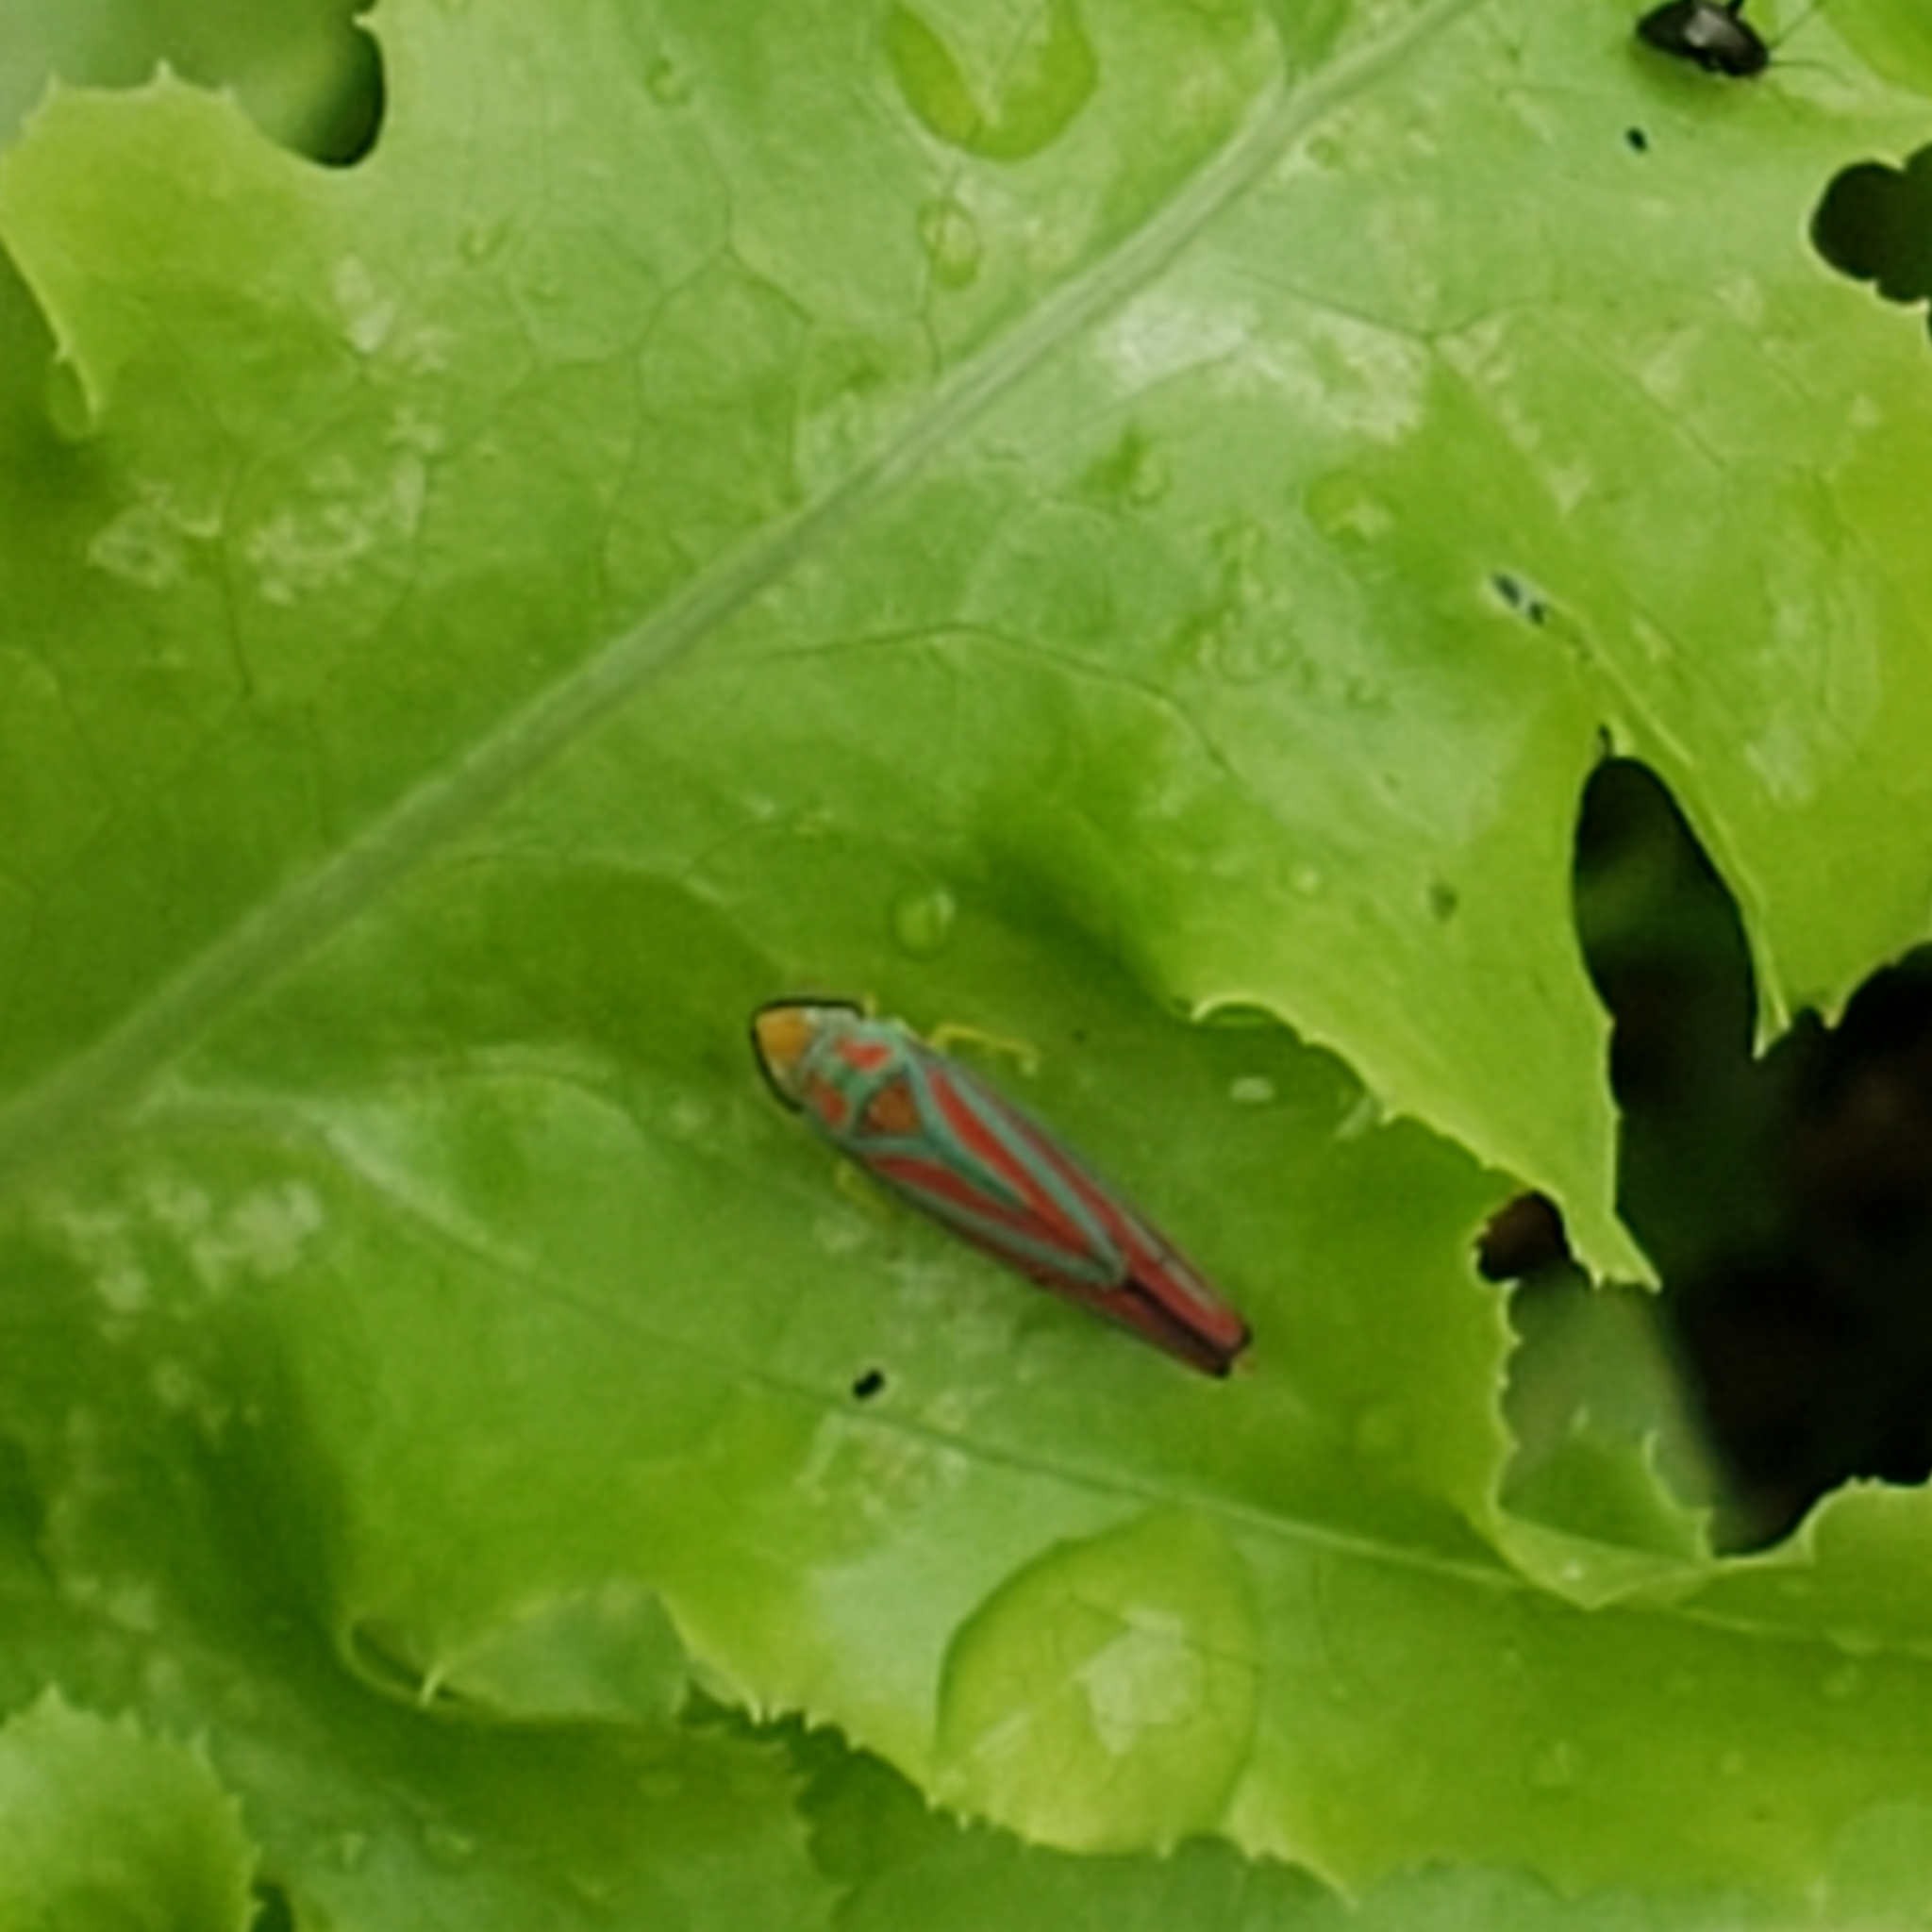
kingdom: Animalia
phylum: Arthropoda
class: Insecta
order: Hemiptera
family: Cicadellidae
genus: Graphocephala
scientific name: Graphocephala coccinea
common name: Candy-striped leafhopper
